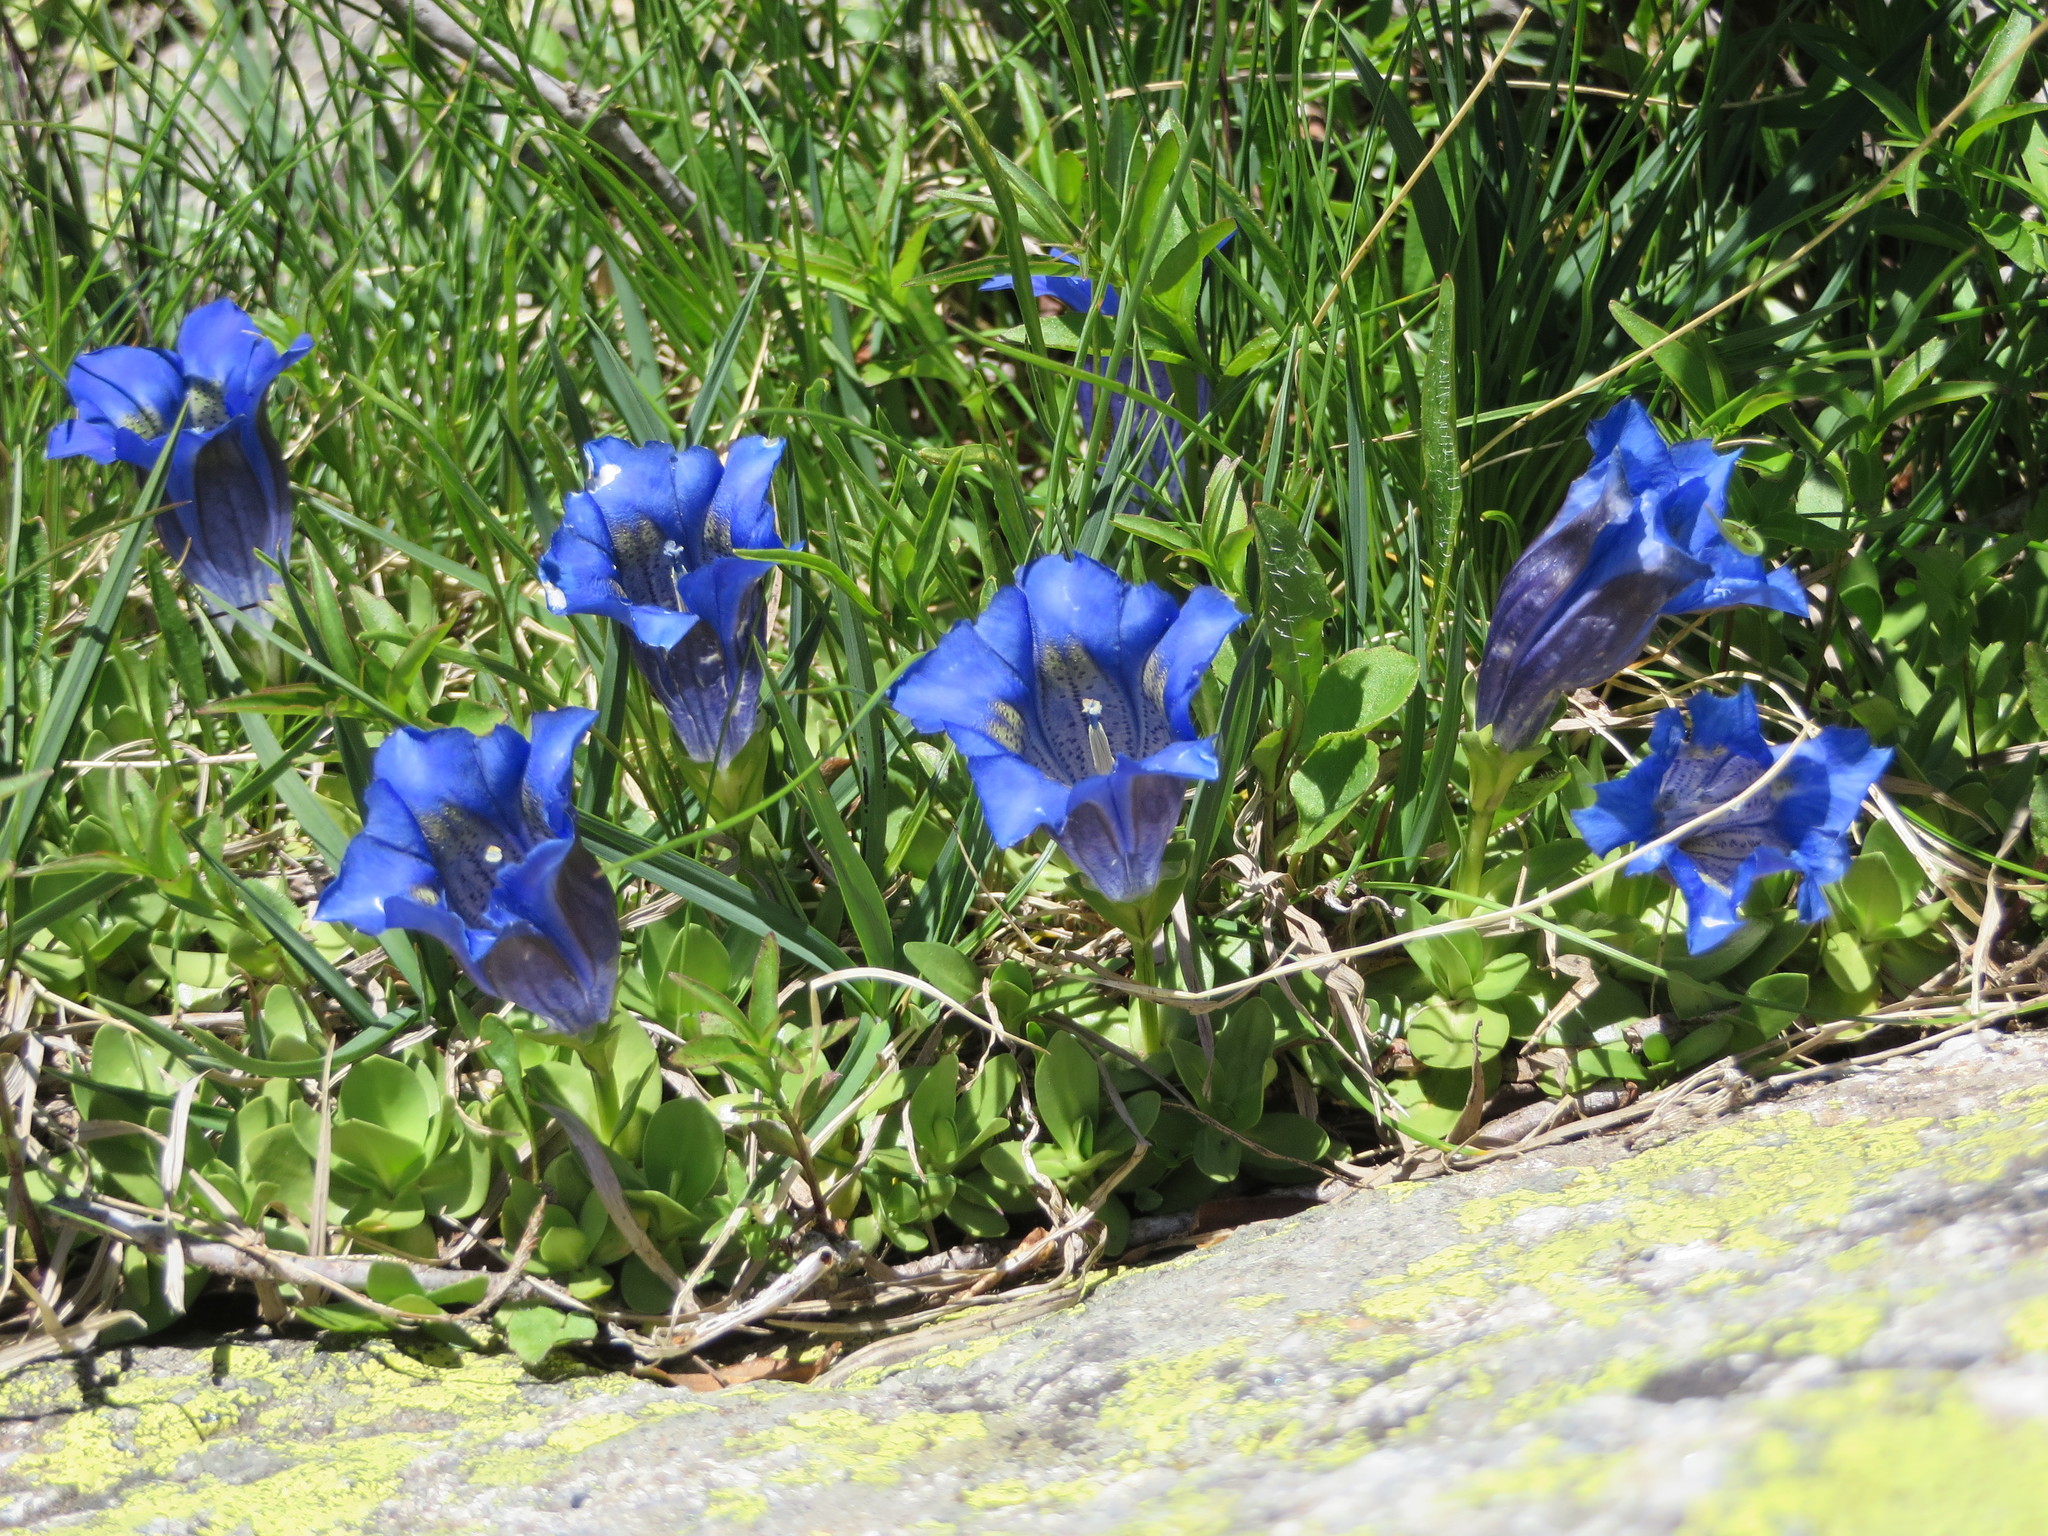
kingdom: Plantae
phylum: Tracheophyta
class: Magnoliopsida
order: Gentianales
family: Gentianaceae
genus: Gentiana
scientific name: Gentiana acaulis
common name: Trumpet gentian
